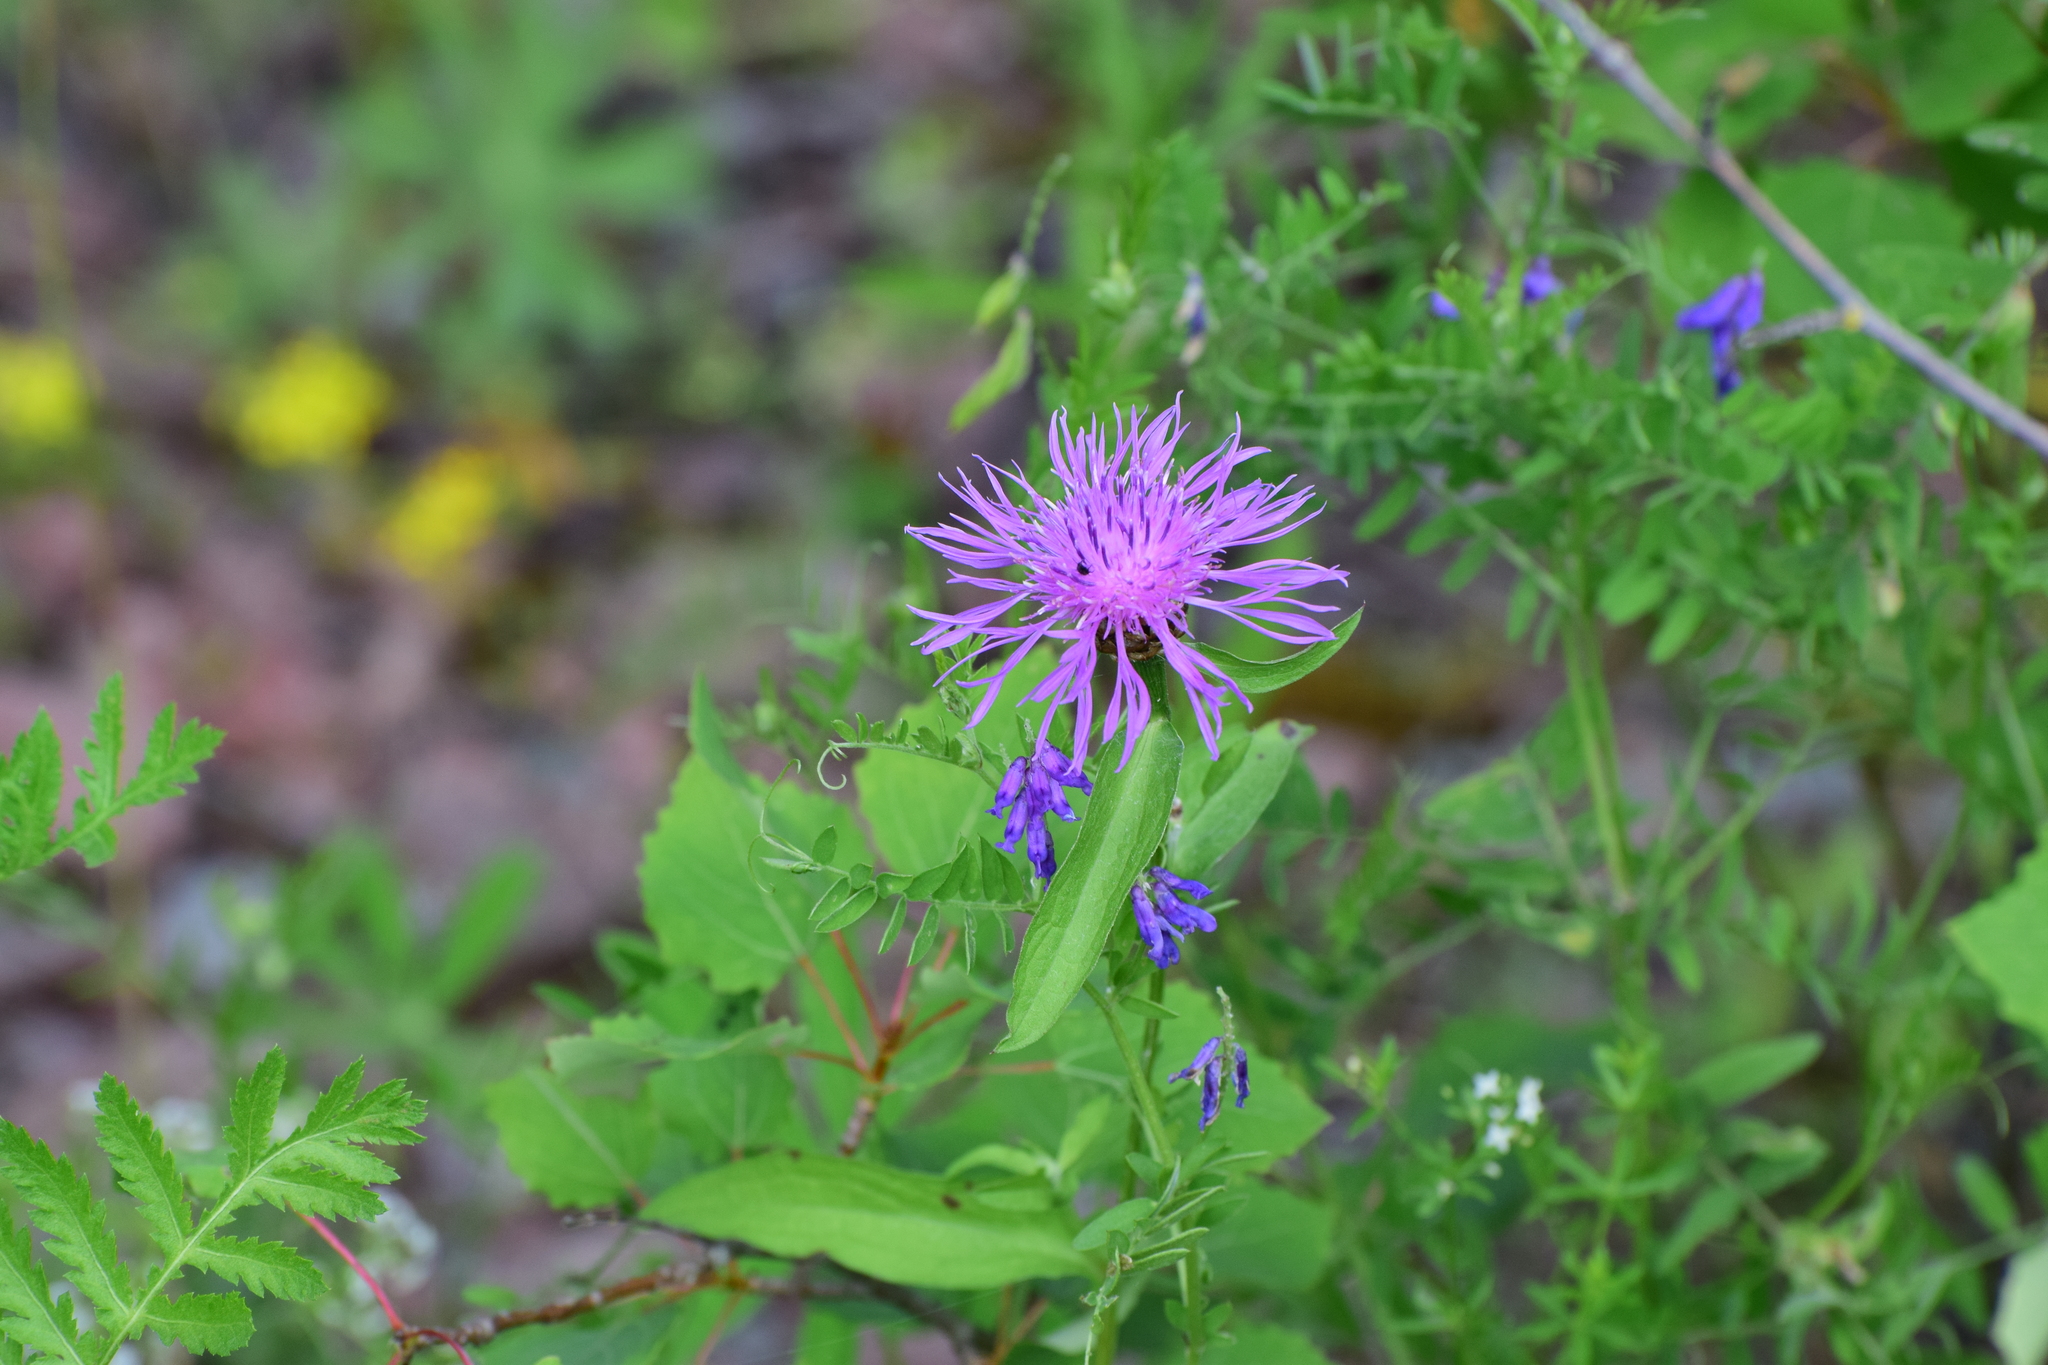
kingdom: Plantae
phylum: Tracheophyta
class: Magnoliopsida
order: Asterales
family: Asteraceae
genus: Centaurea
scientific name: Centaurea jacea
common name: Brown knapweed
